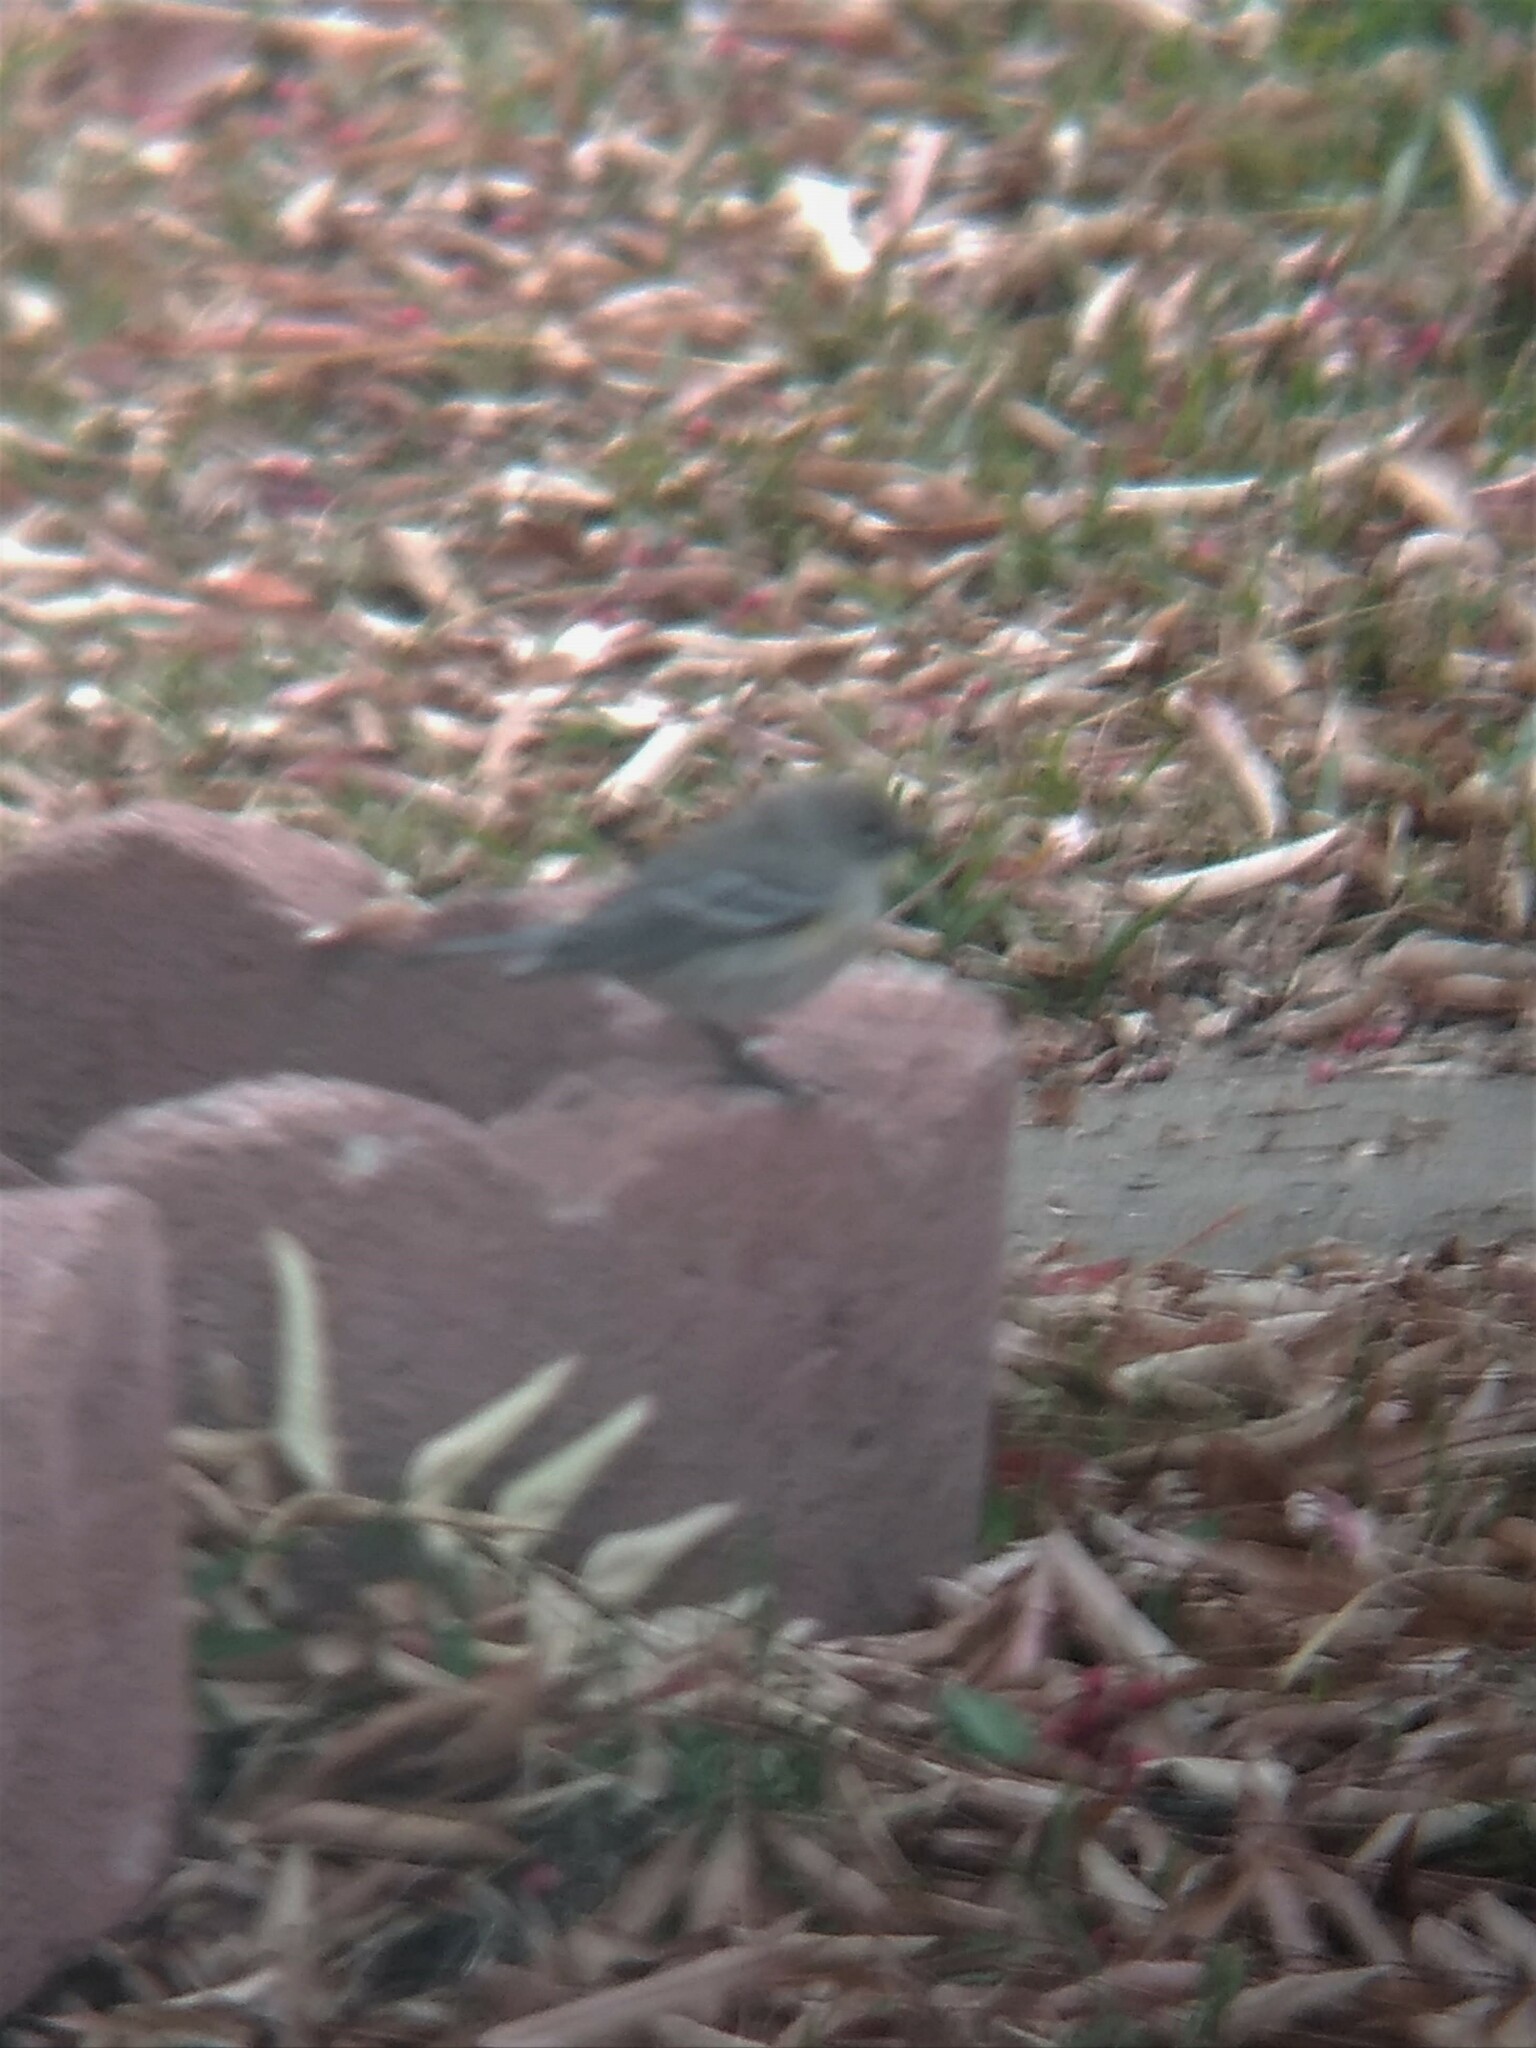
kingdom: Animalia
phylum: Chordata
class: Aves
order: Passeriformes
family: Parulidae
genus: Setophaga
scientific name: Setophaga coronata
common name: Myrtle warbler
